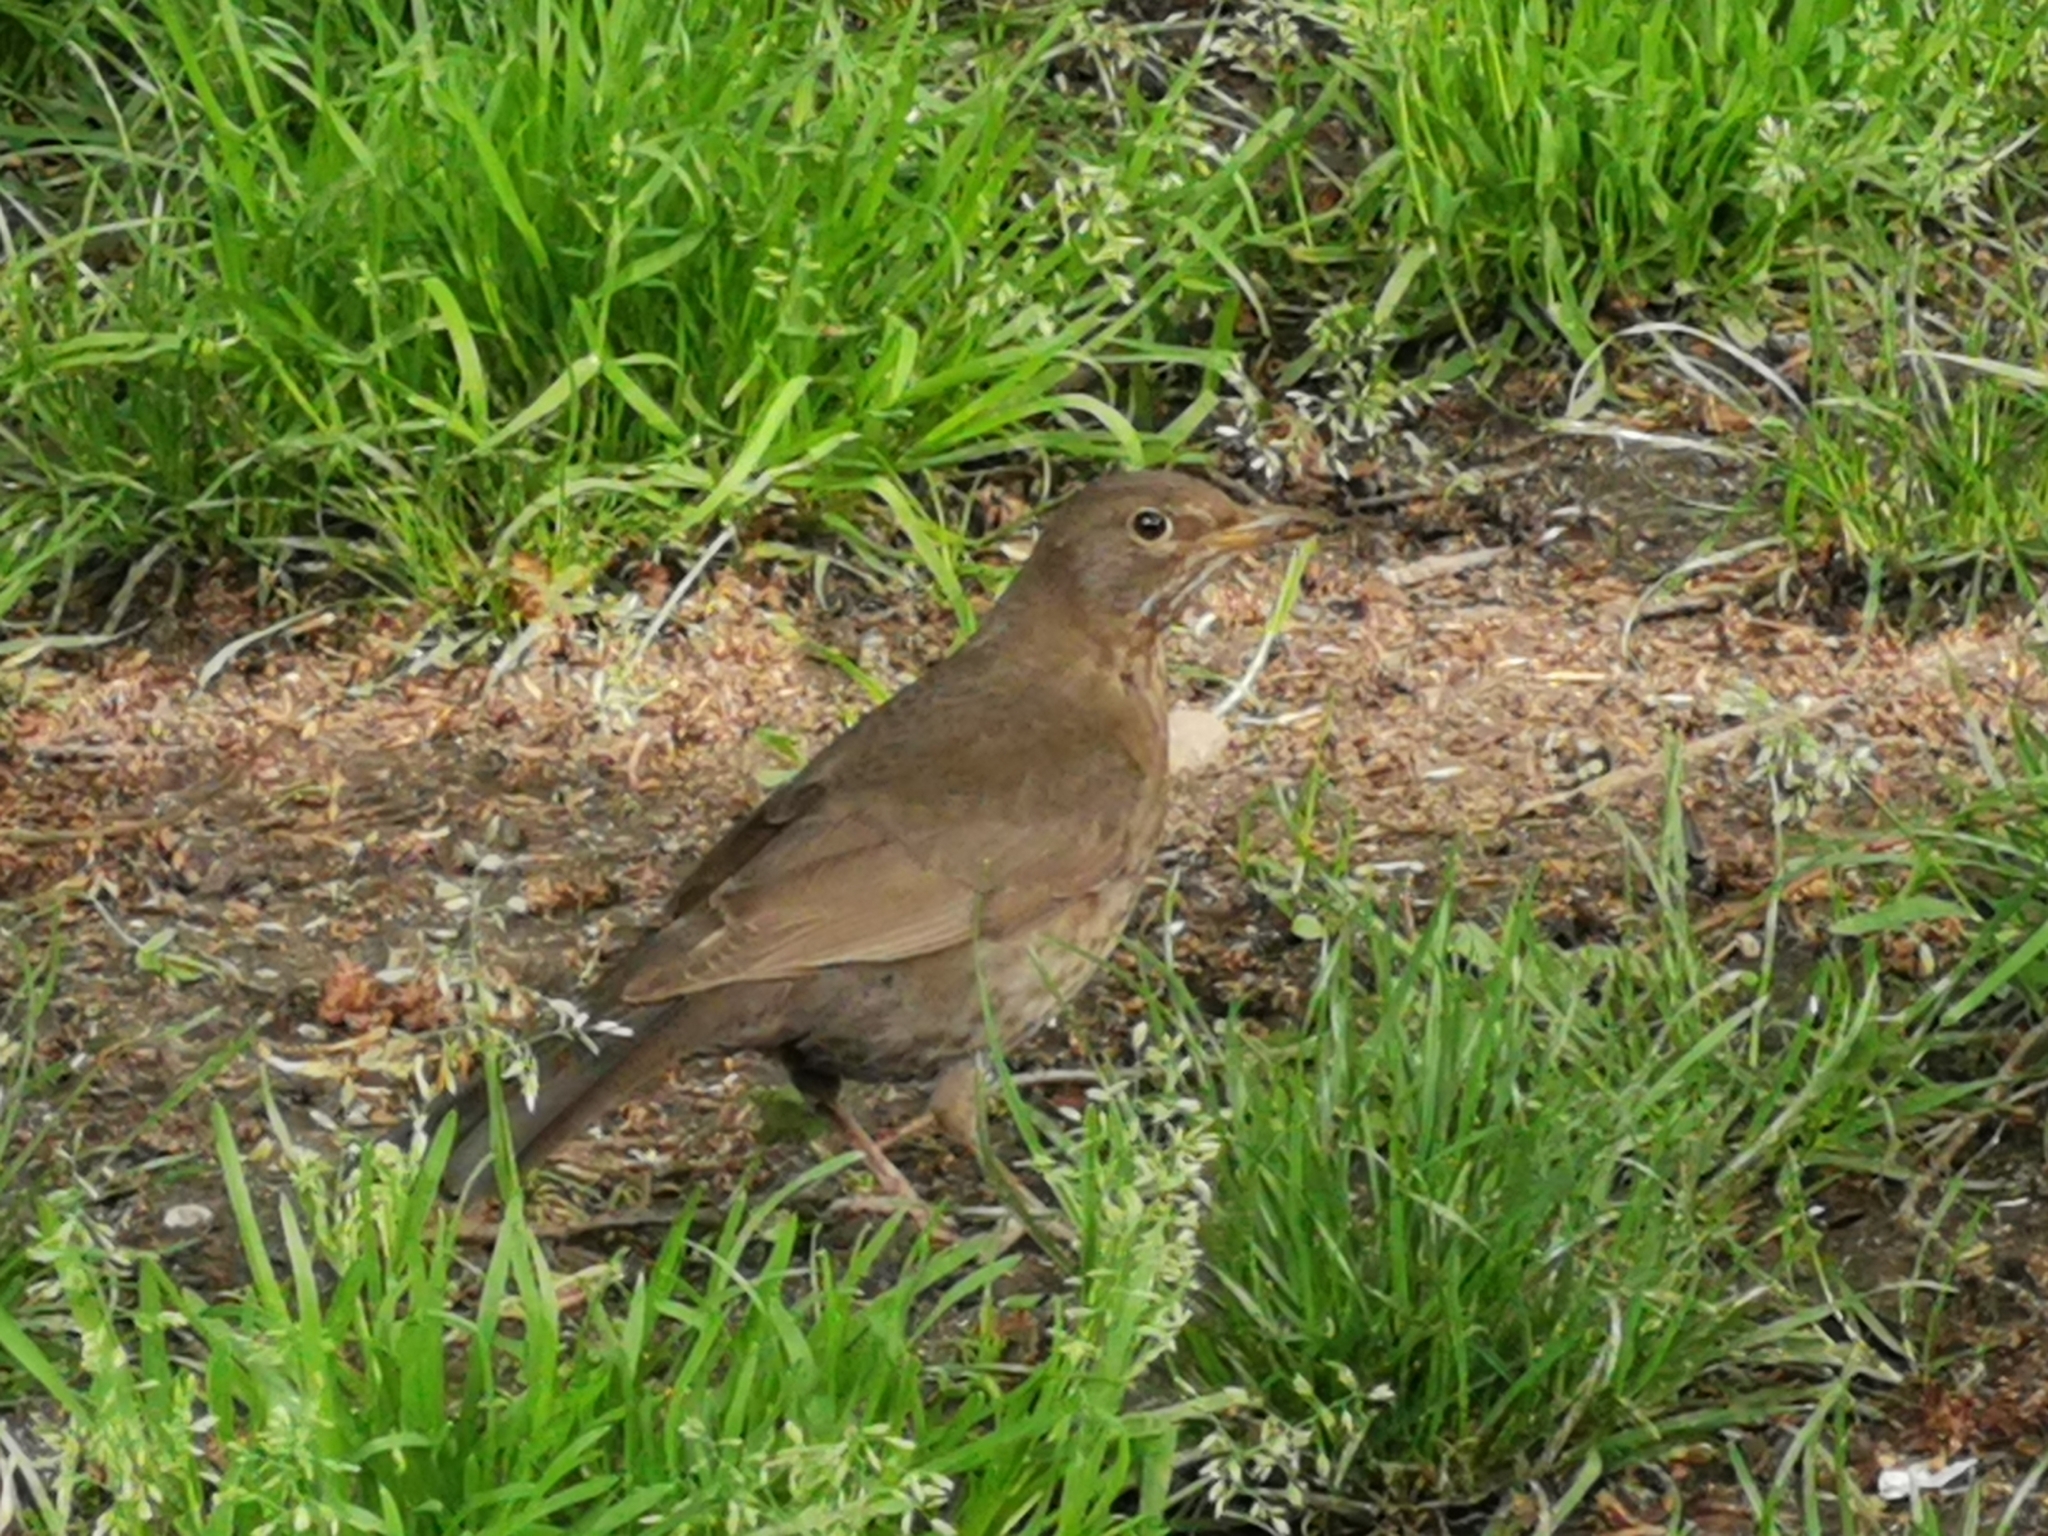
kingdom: Animalia
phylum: Chordata
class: Aves
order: Passeriformes
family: Turdidae
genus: Turdus
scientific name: Turdus merula
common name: Common blackbird
